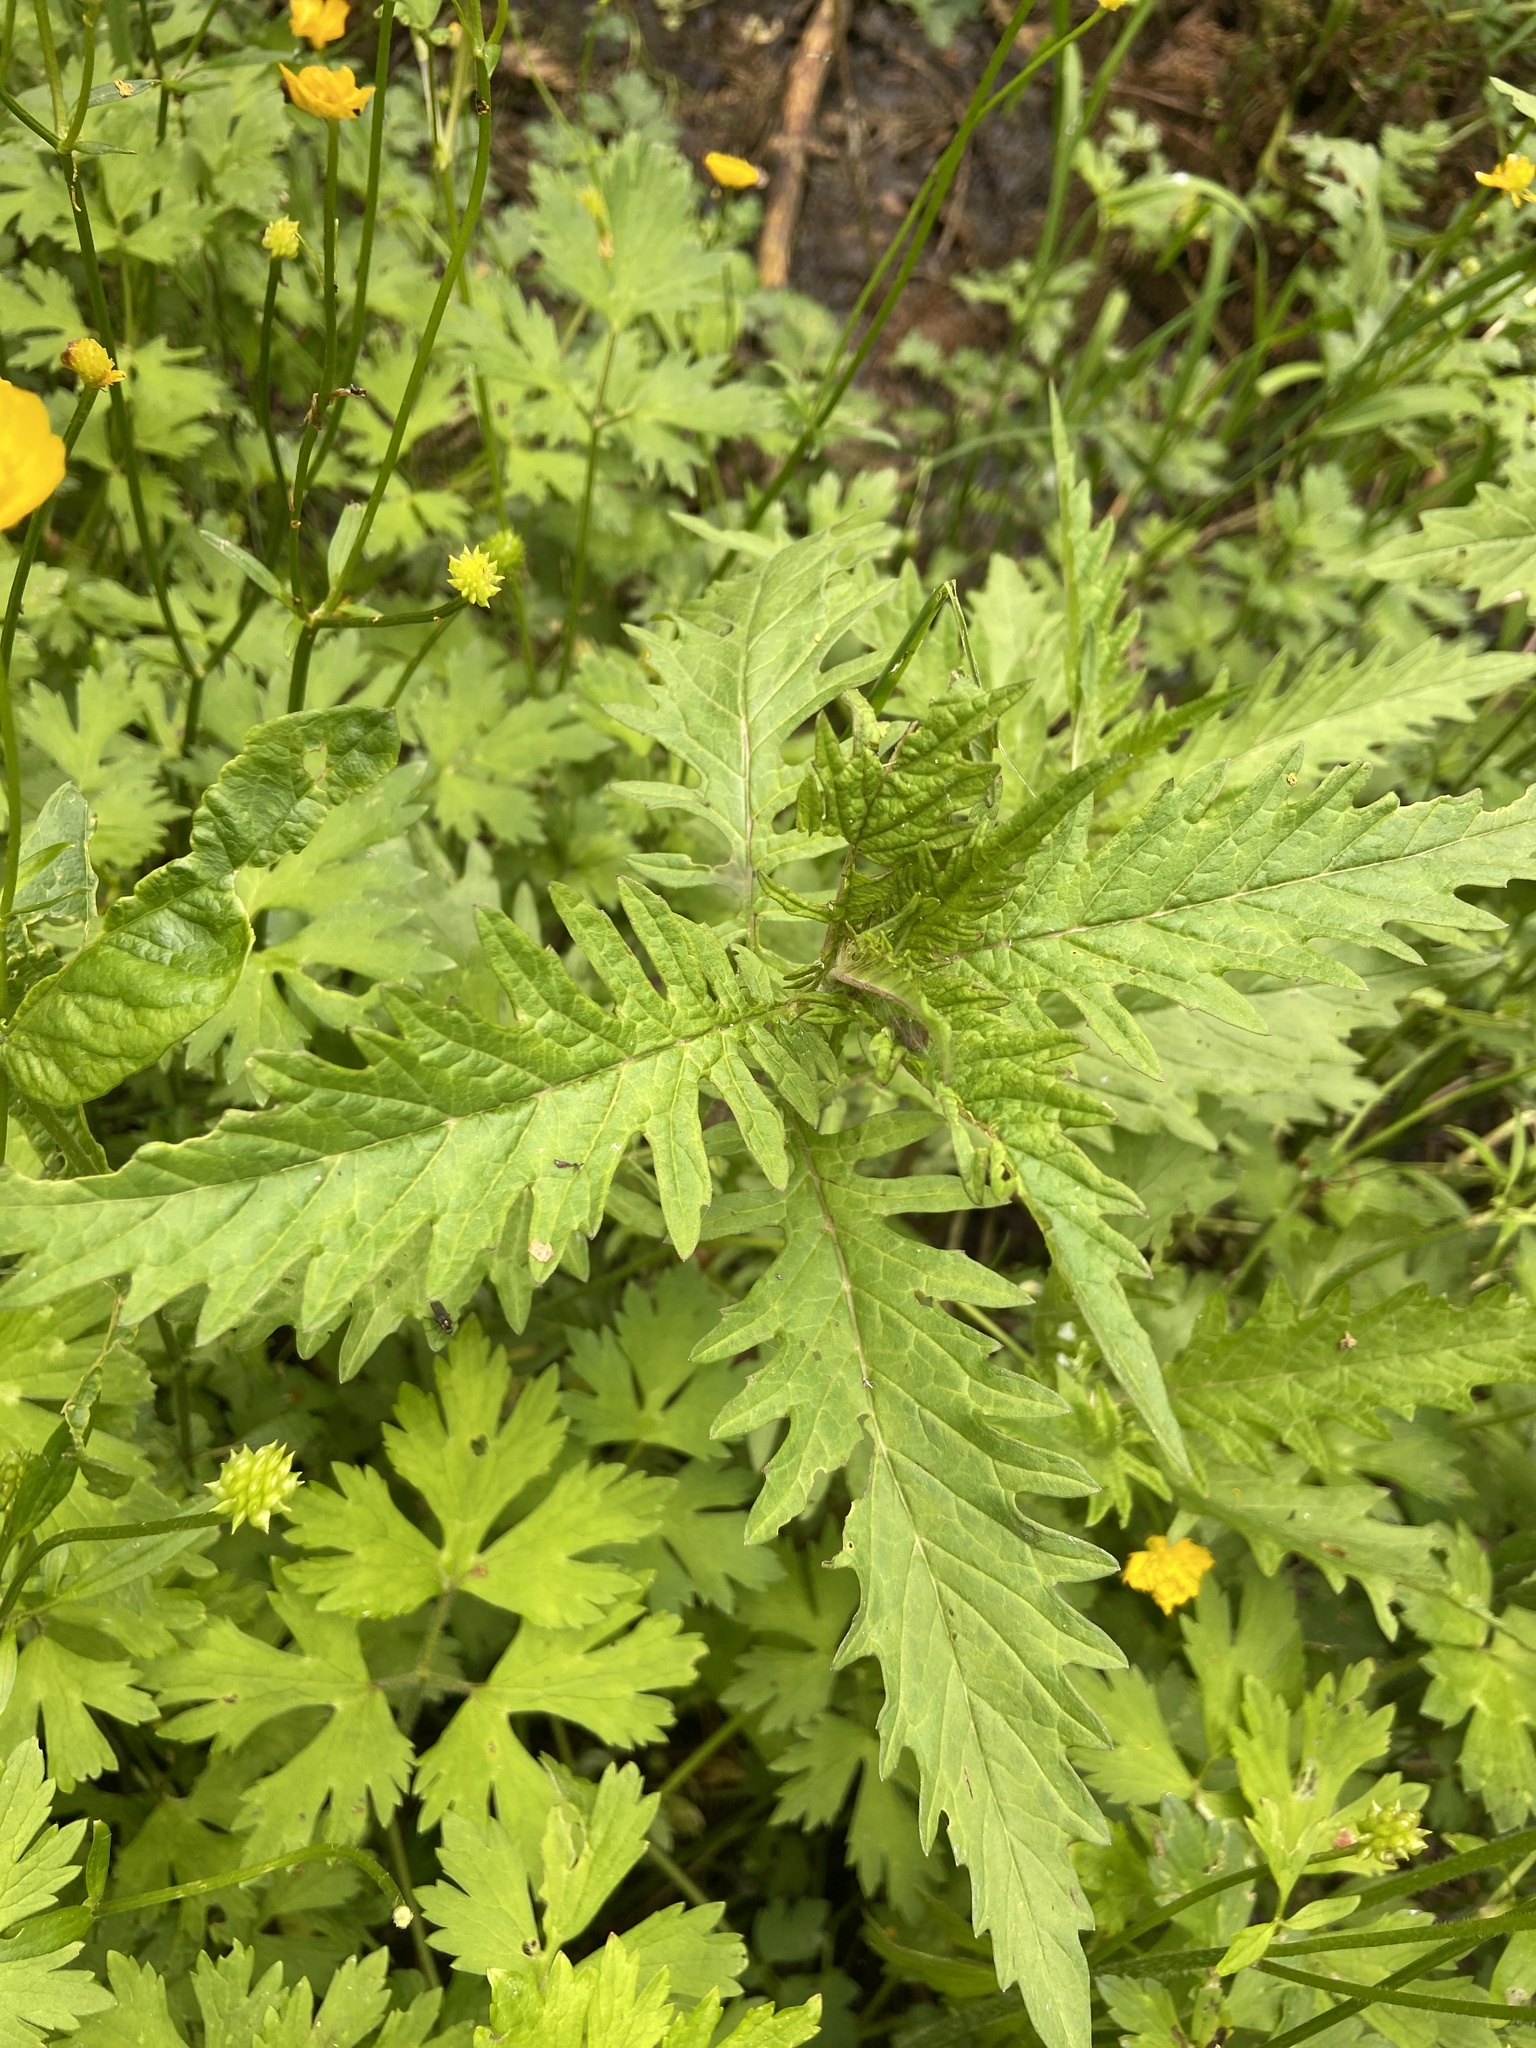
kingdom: Plantae
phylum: Tracheophyta
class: Magnoliopsida
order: Lamiales
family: Lamiaceae
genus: Lycopus
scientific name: Lycopus europaeus
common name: European bugleweed
